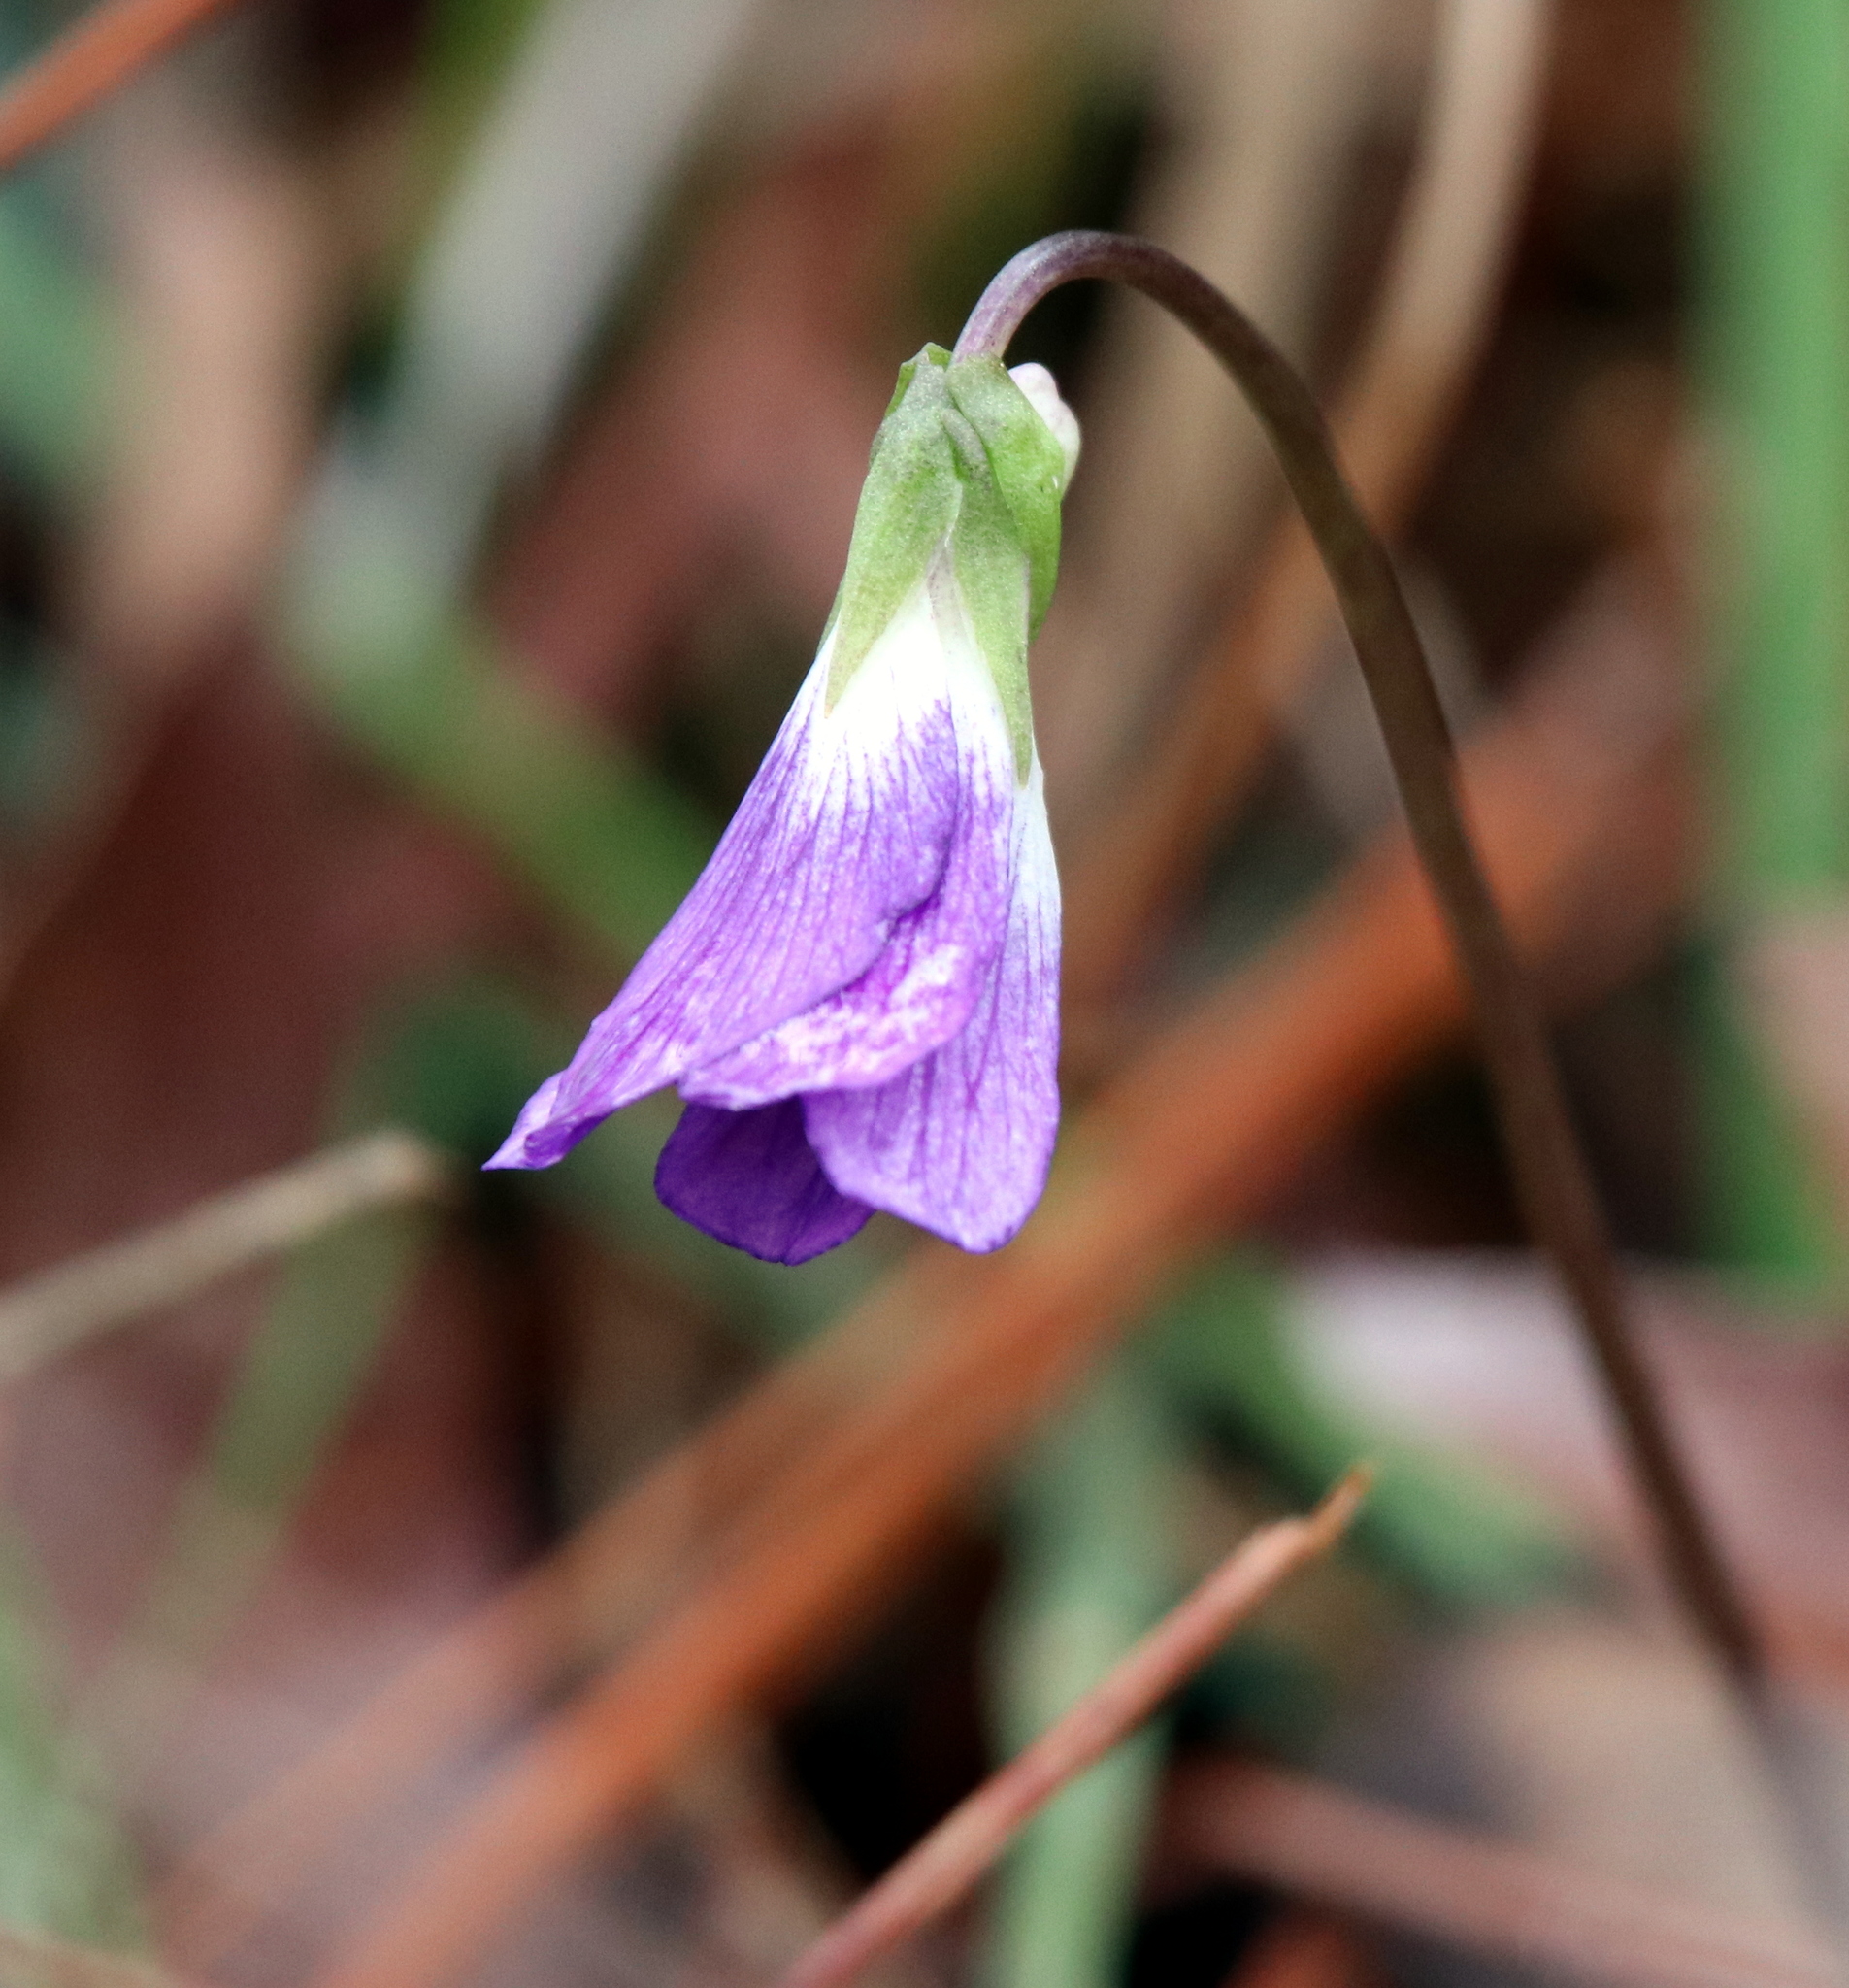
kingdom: Plantae
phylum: Tracheophyta
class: Magnoliopsida
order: Malpighiales
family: Violaceae
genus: Viola
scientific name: Viola septemloba
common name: Southern coast violet
